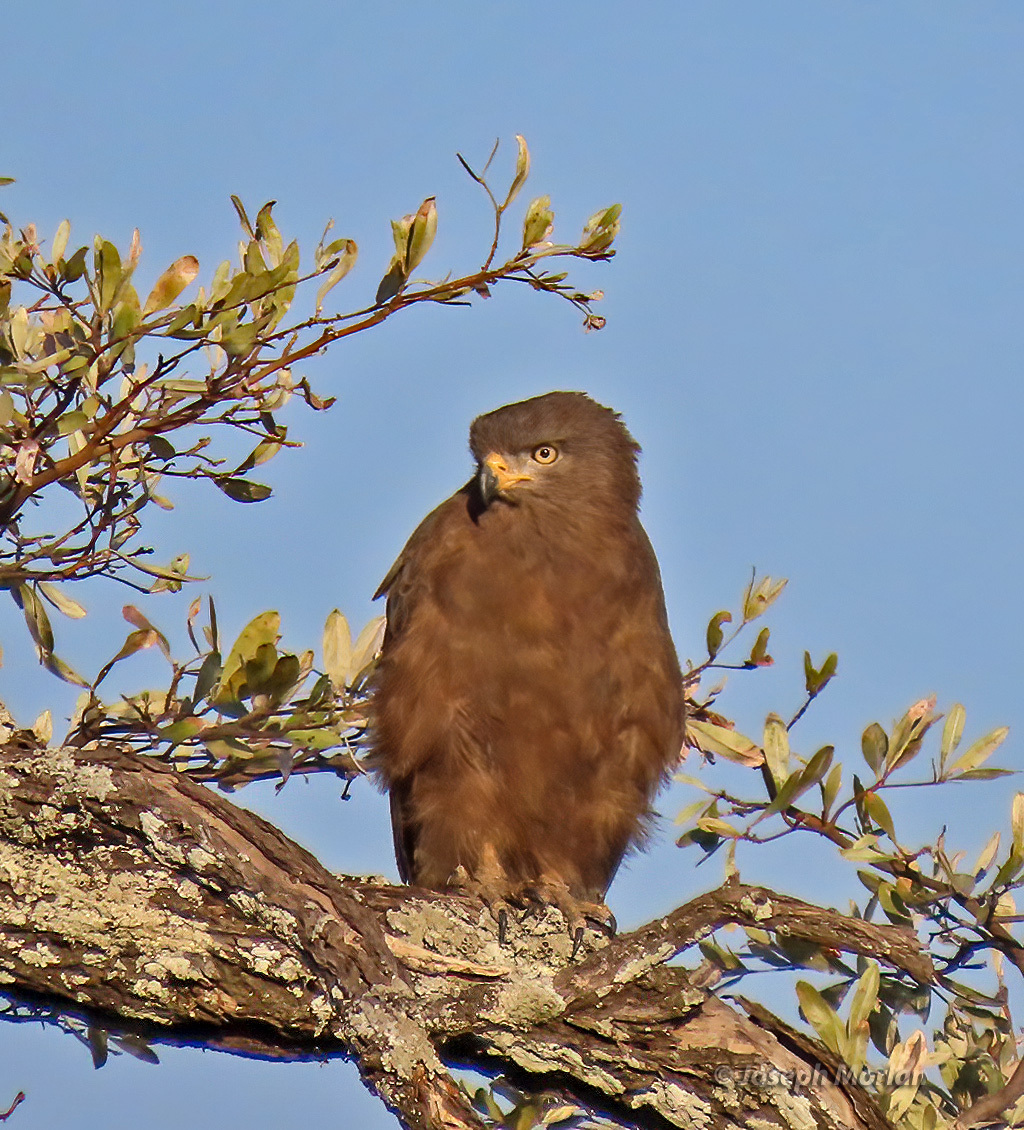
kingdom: Animalia
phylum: Chordata
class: Aves
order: Accipitriformes
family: Accipitridae
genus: Circaetus
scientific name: Circaetus cinerascens
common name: Western banded snake eagle
